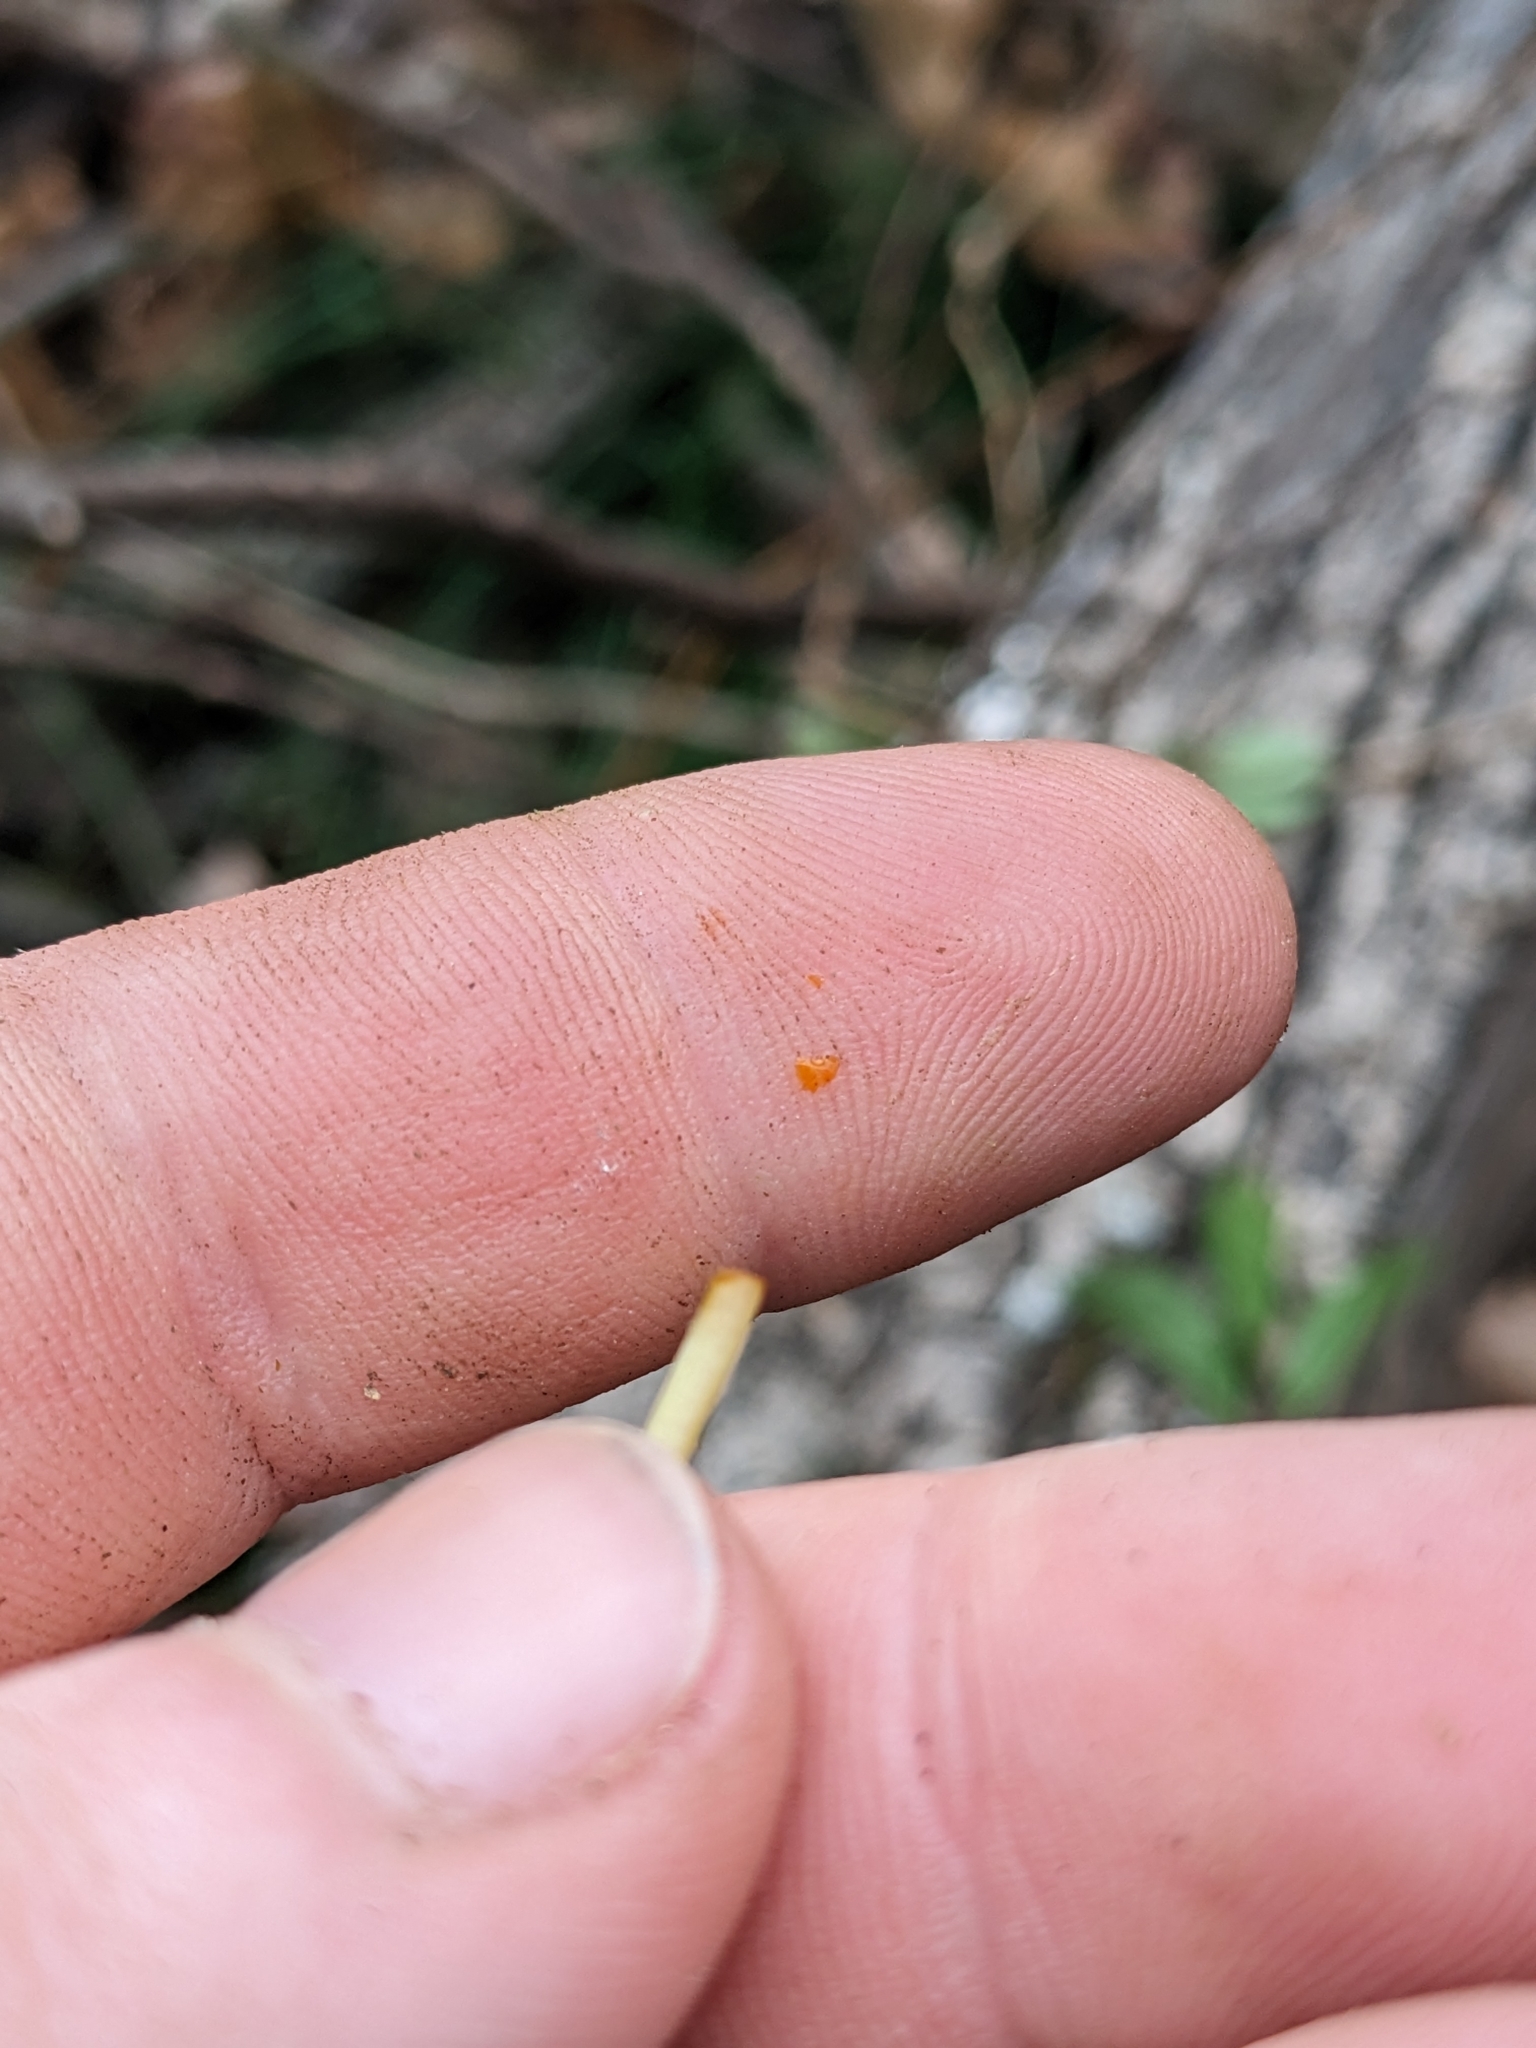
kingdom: Plantae
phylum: Tracheophyta
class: Magnoliopsida
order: Ranunculales
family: Papaveraceae
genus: Sanguinaria
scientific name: Sanguinaria canadensis
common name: Bloodroot
